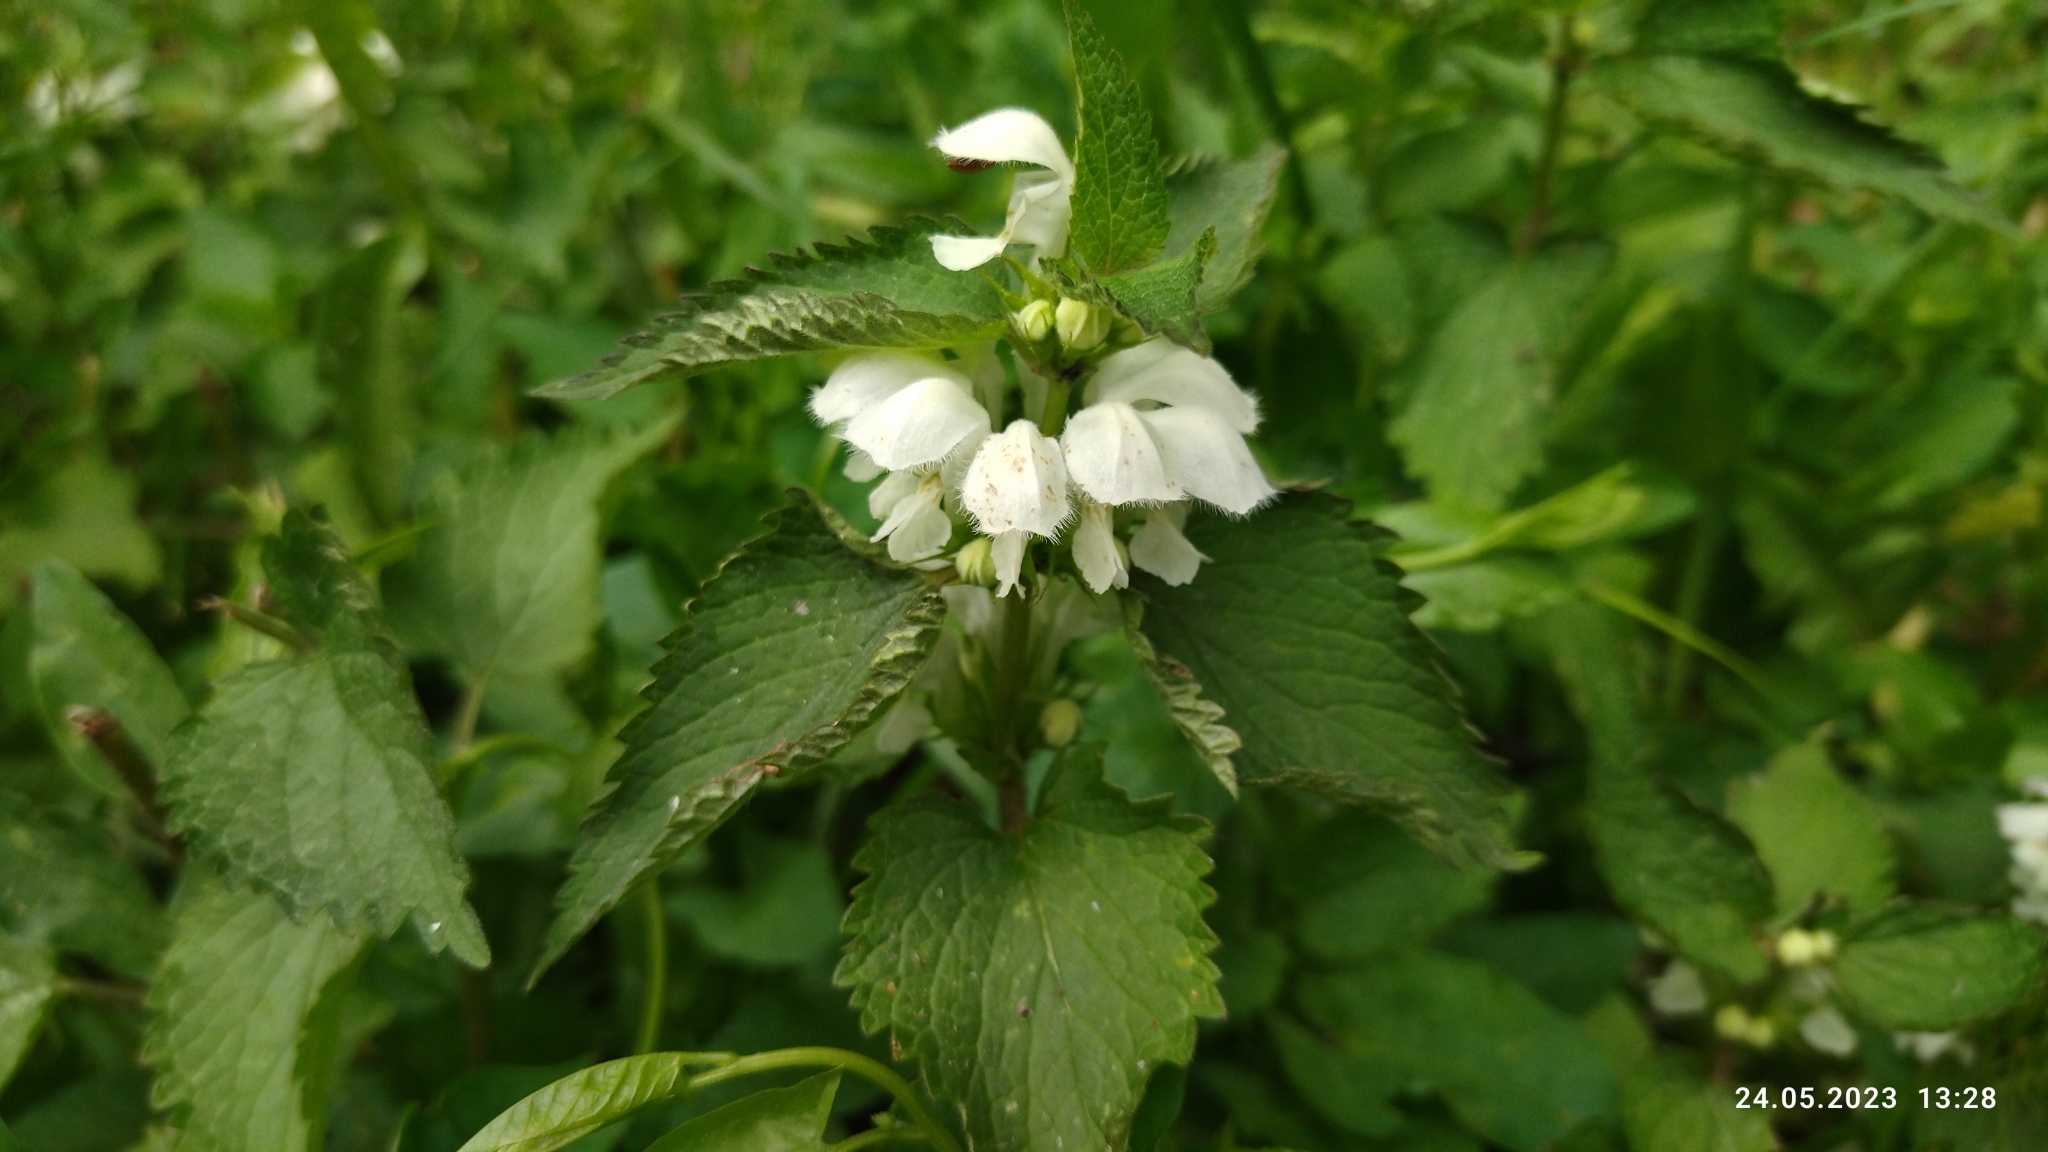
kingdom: Plantae
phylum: Tracheophyta
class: Magnoliopsida
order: Lamiales
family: Lamiaceae
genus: Lamium
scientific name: Lamium album
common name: White dead-nettle
